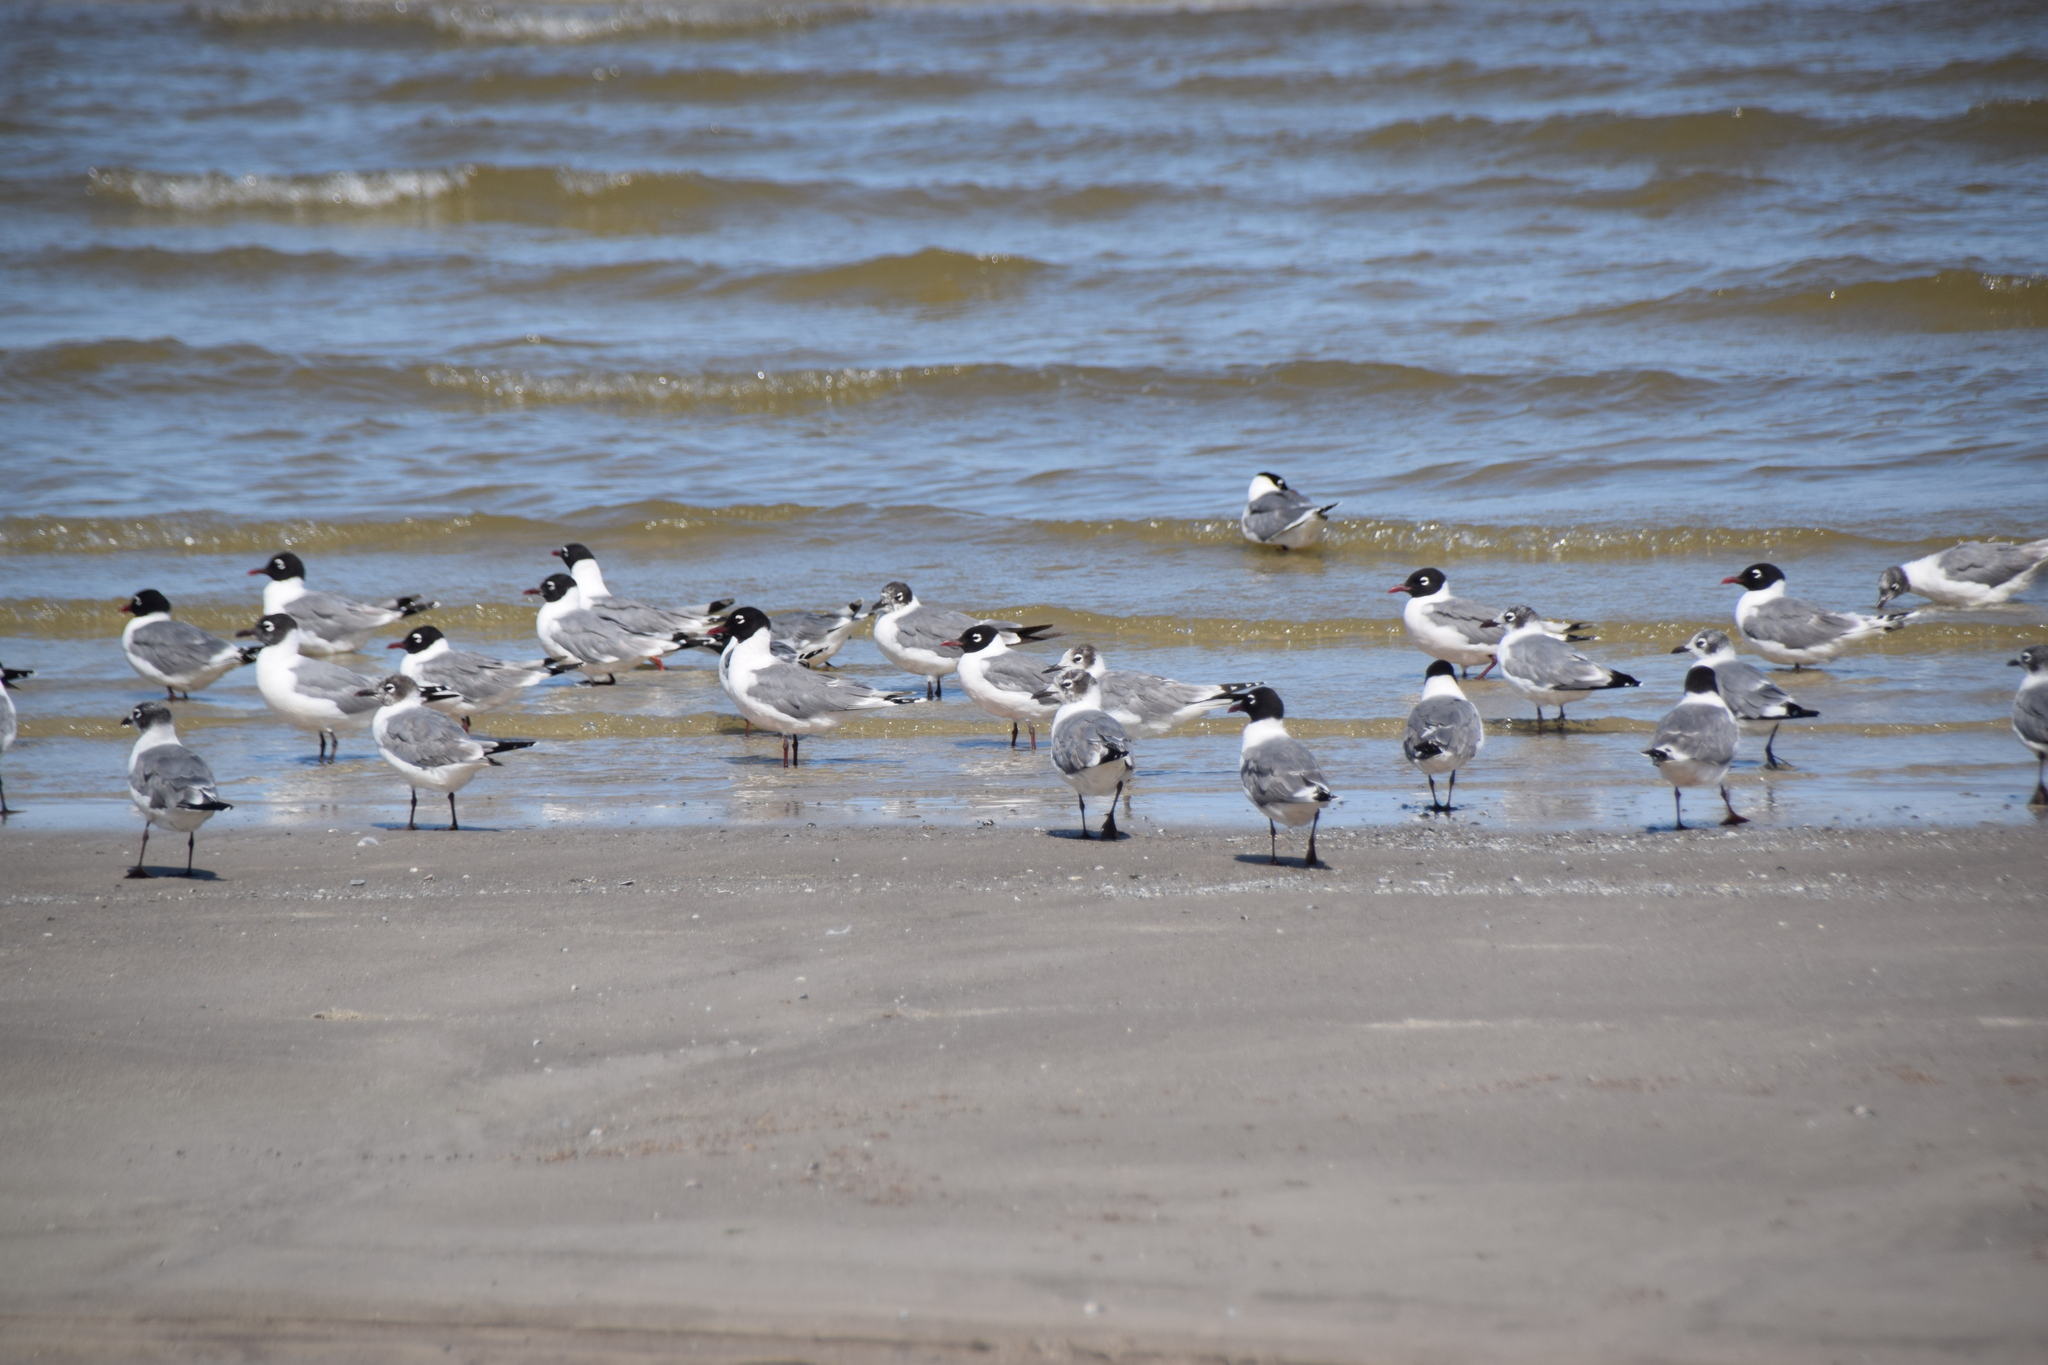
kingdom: Animalia
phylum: Chordata
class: Aves
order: Charadriiformes
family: Laridae
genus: Leucophaeus
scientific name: Leucophaeus pipixcan
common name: Franklin's gull
